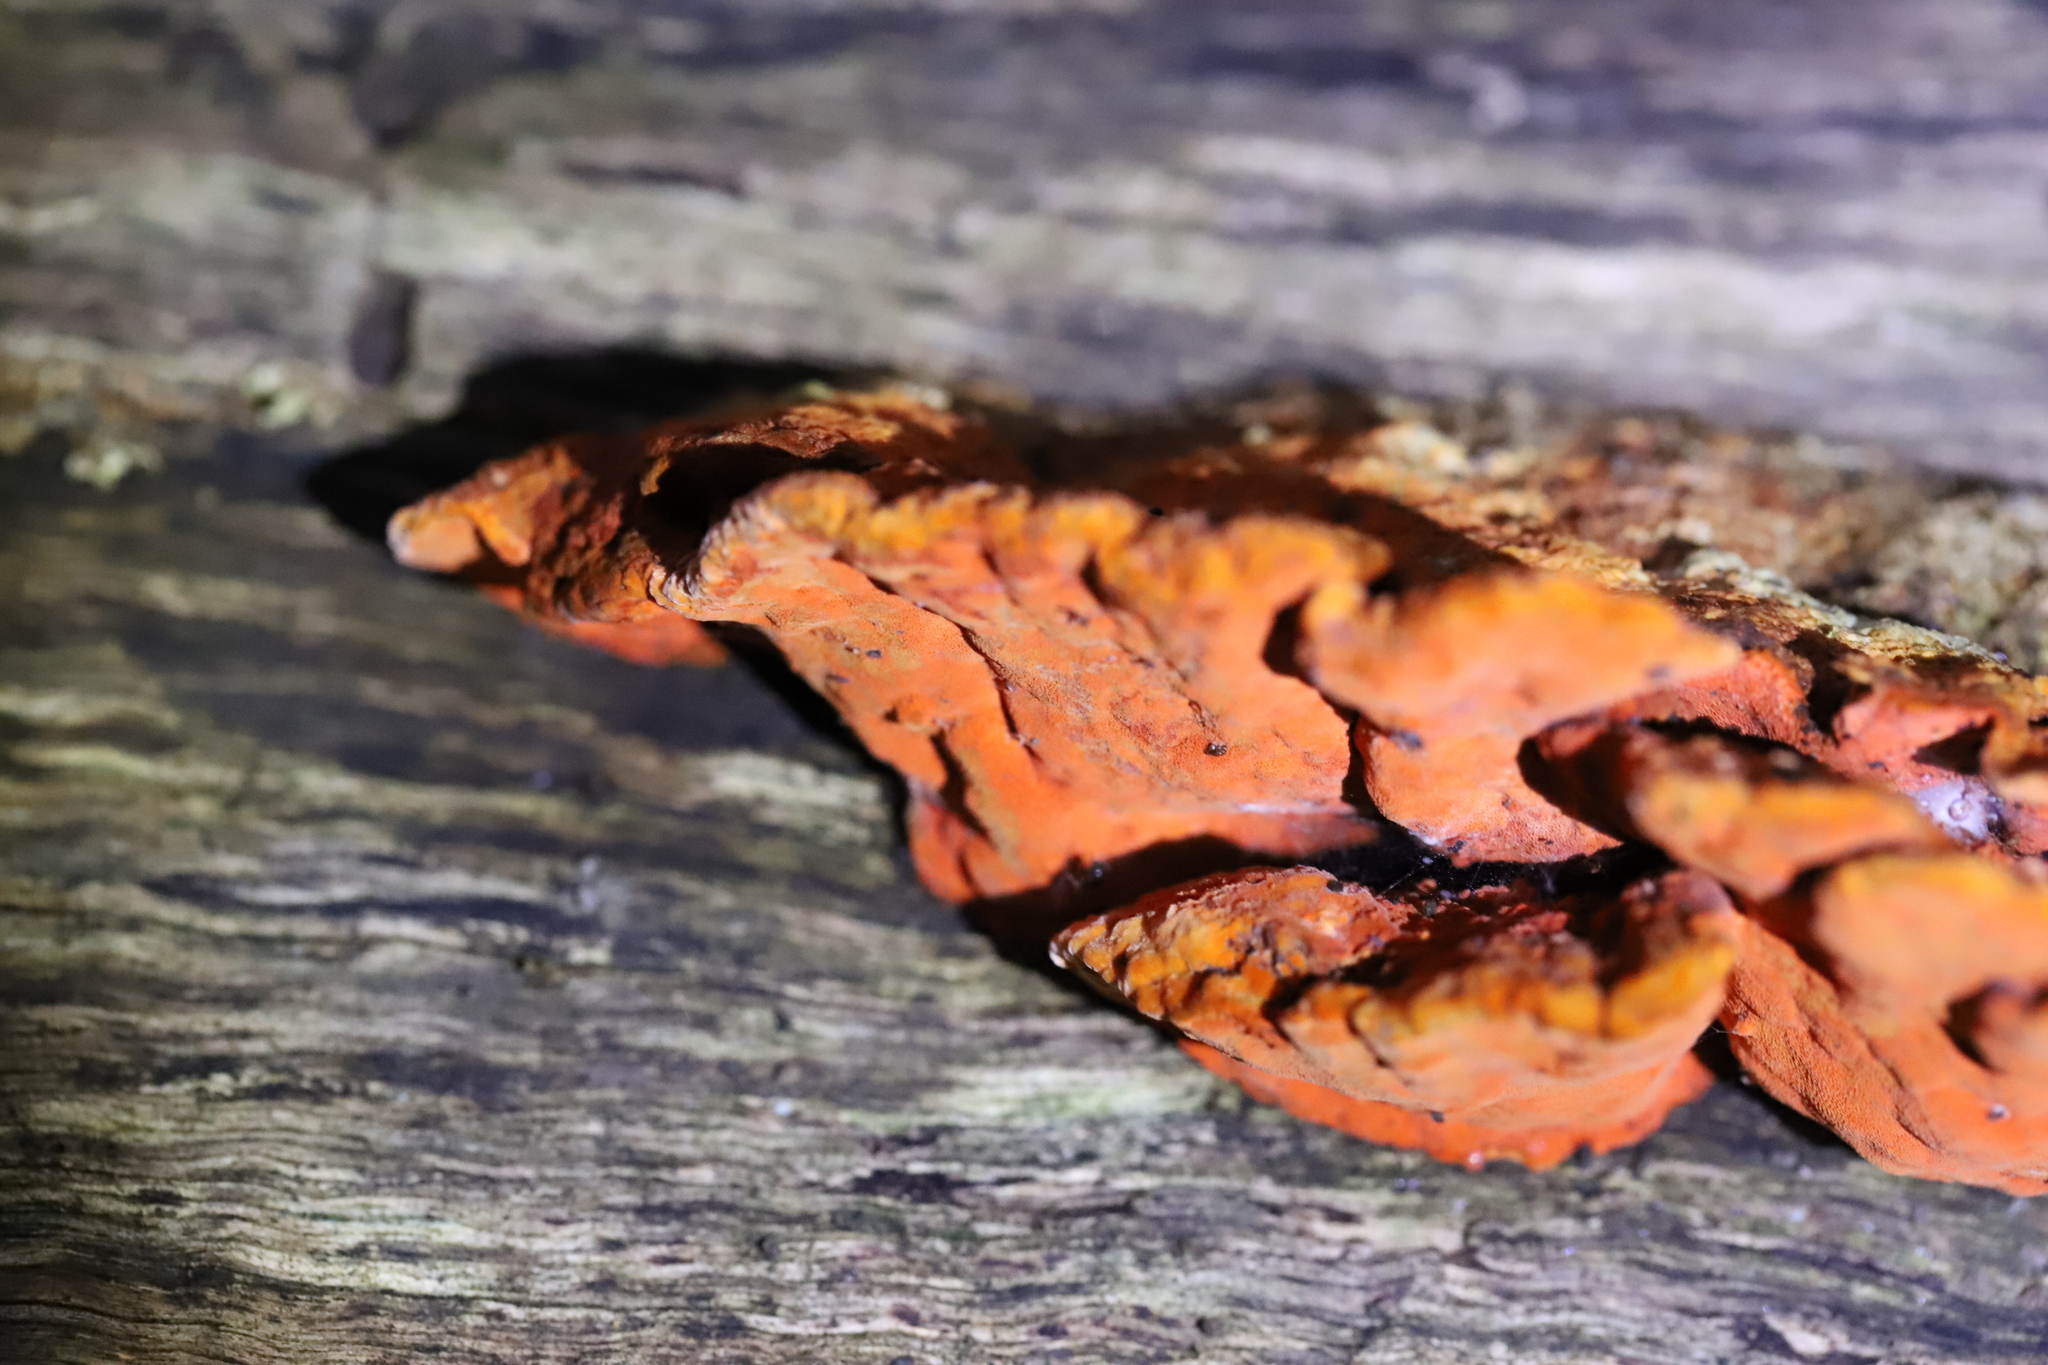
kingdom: Fungi
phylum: Basidiomycota
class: Agaricomycetes
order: Polyporales
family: Polyporaceae
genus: Trametes
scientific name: Trametes coccinea
